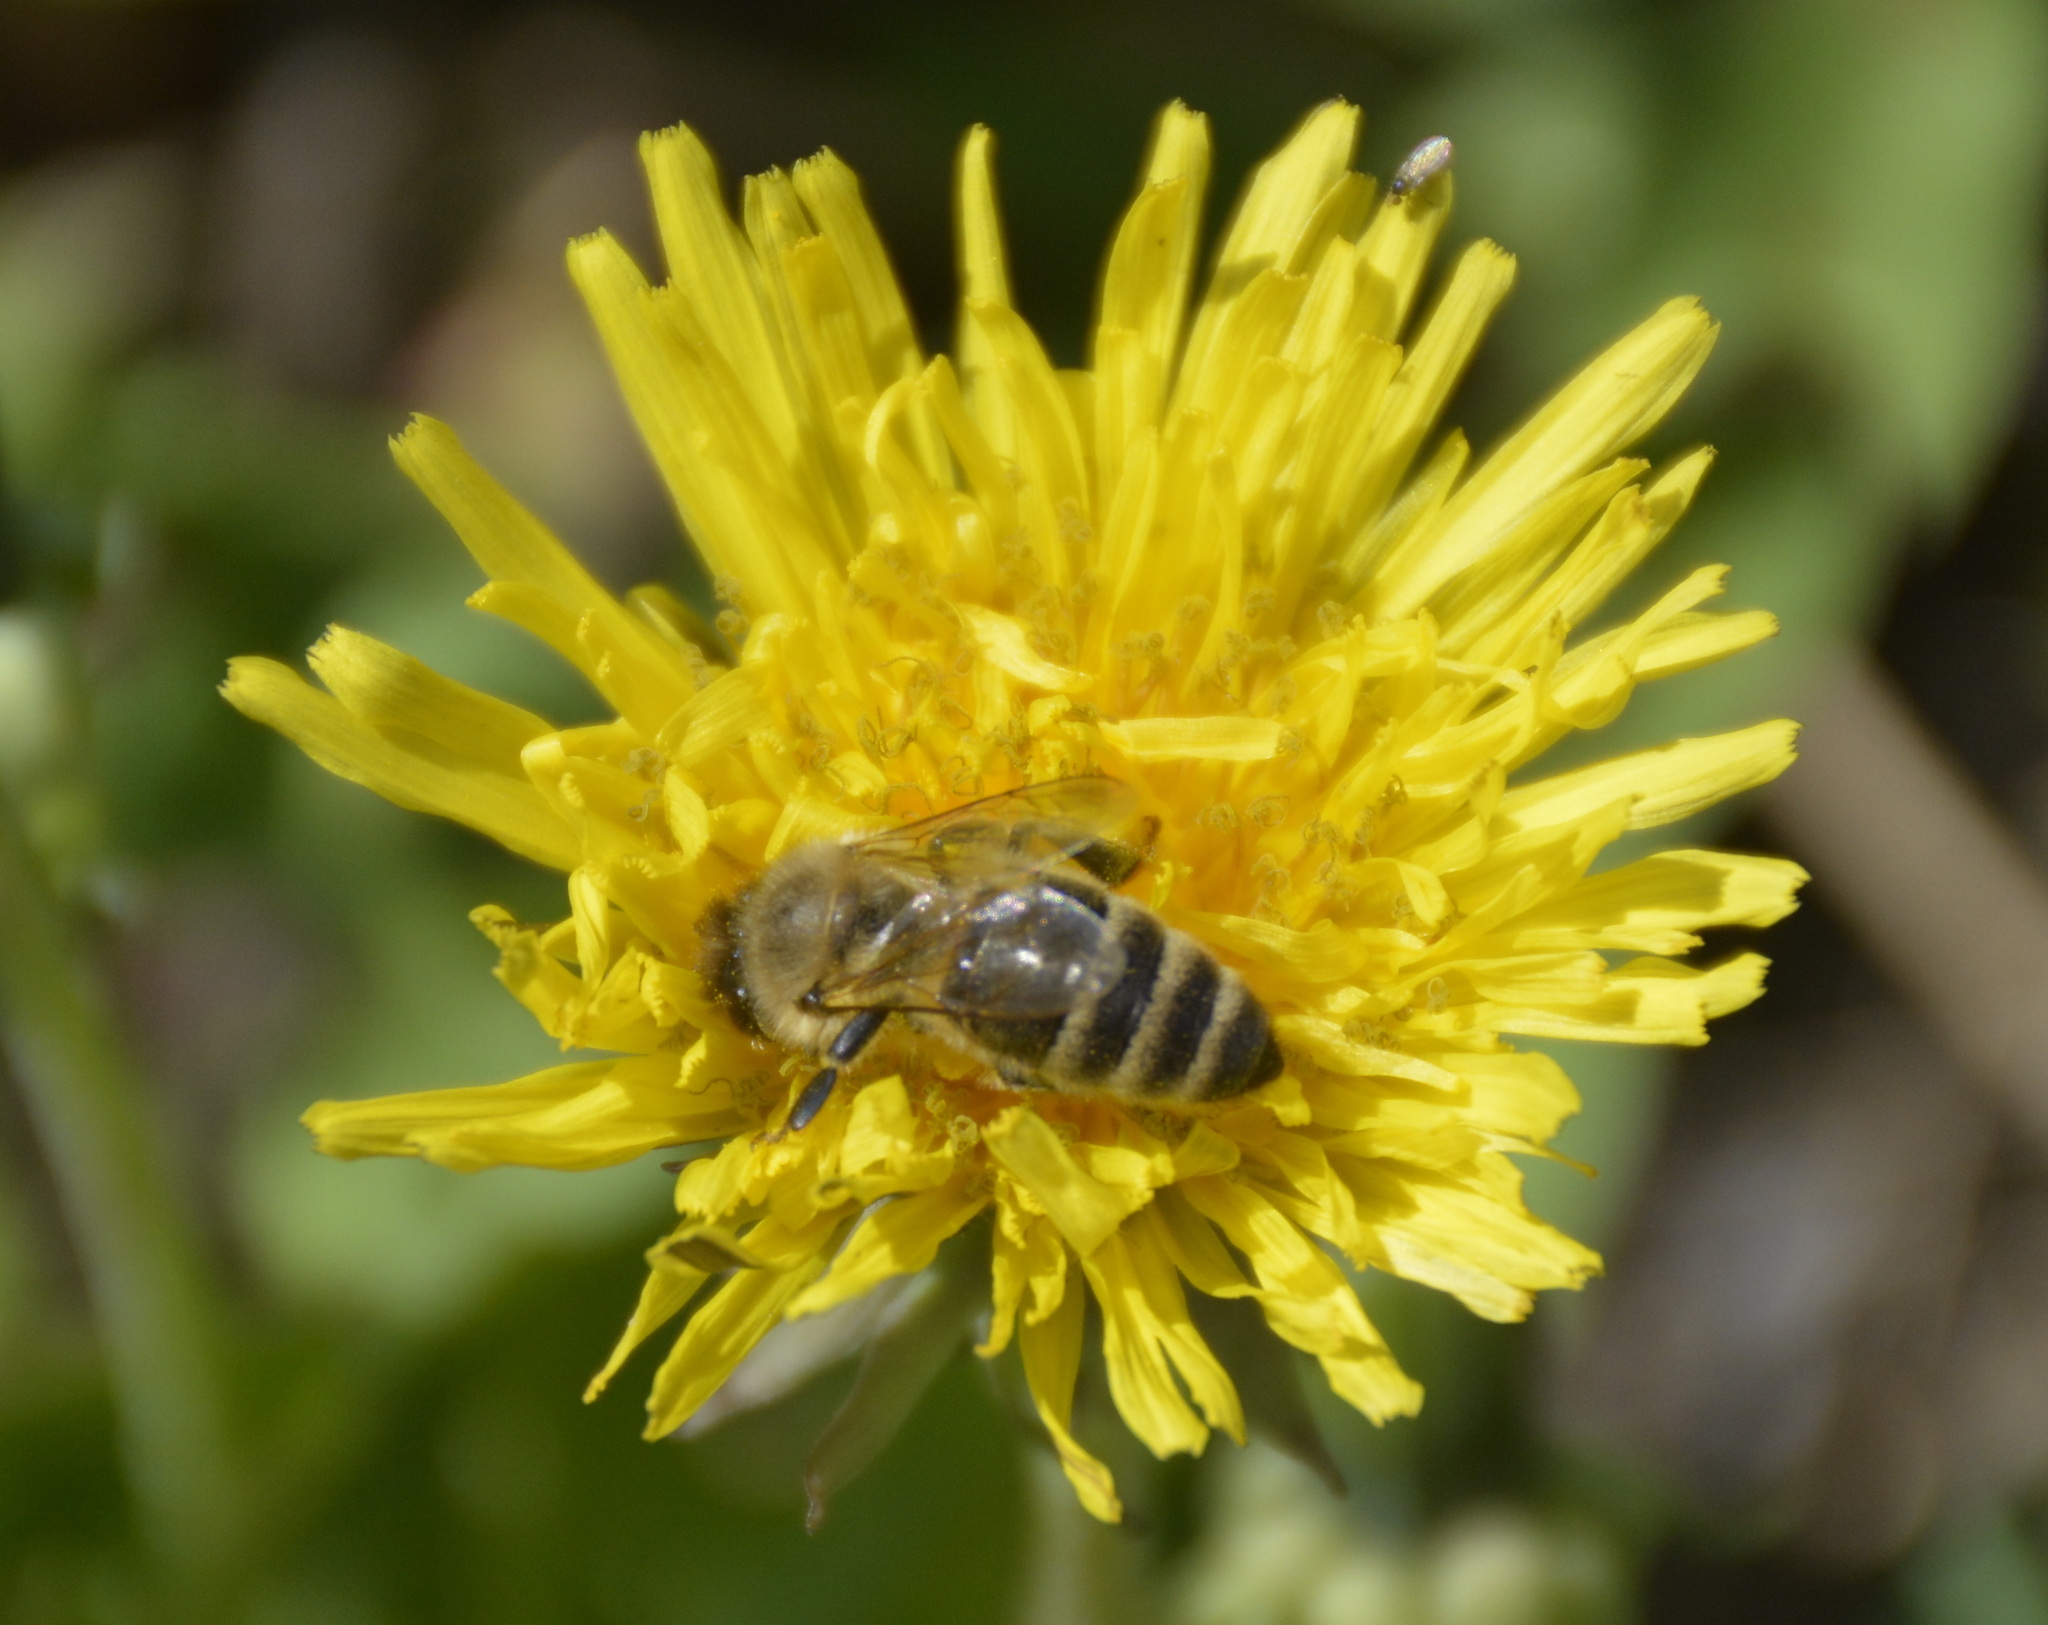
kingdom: Animalia
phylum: Arthropoda
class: Insecta
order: Hymenoptera
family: Apidae
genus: Apis
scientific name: Apis mellifera
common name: Honey bee
